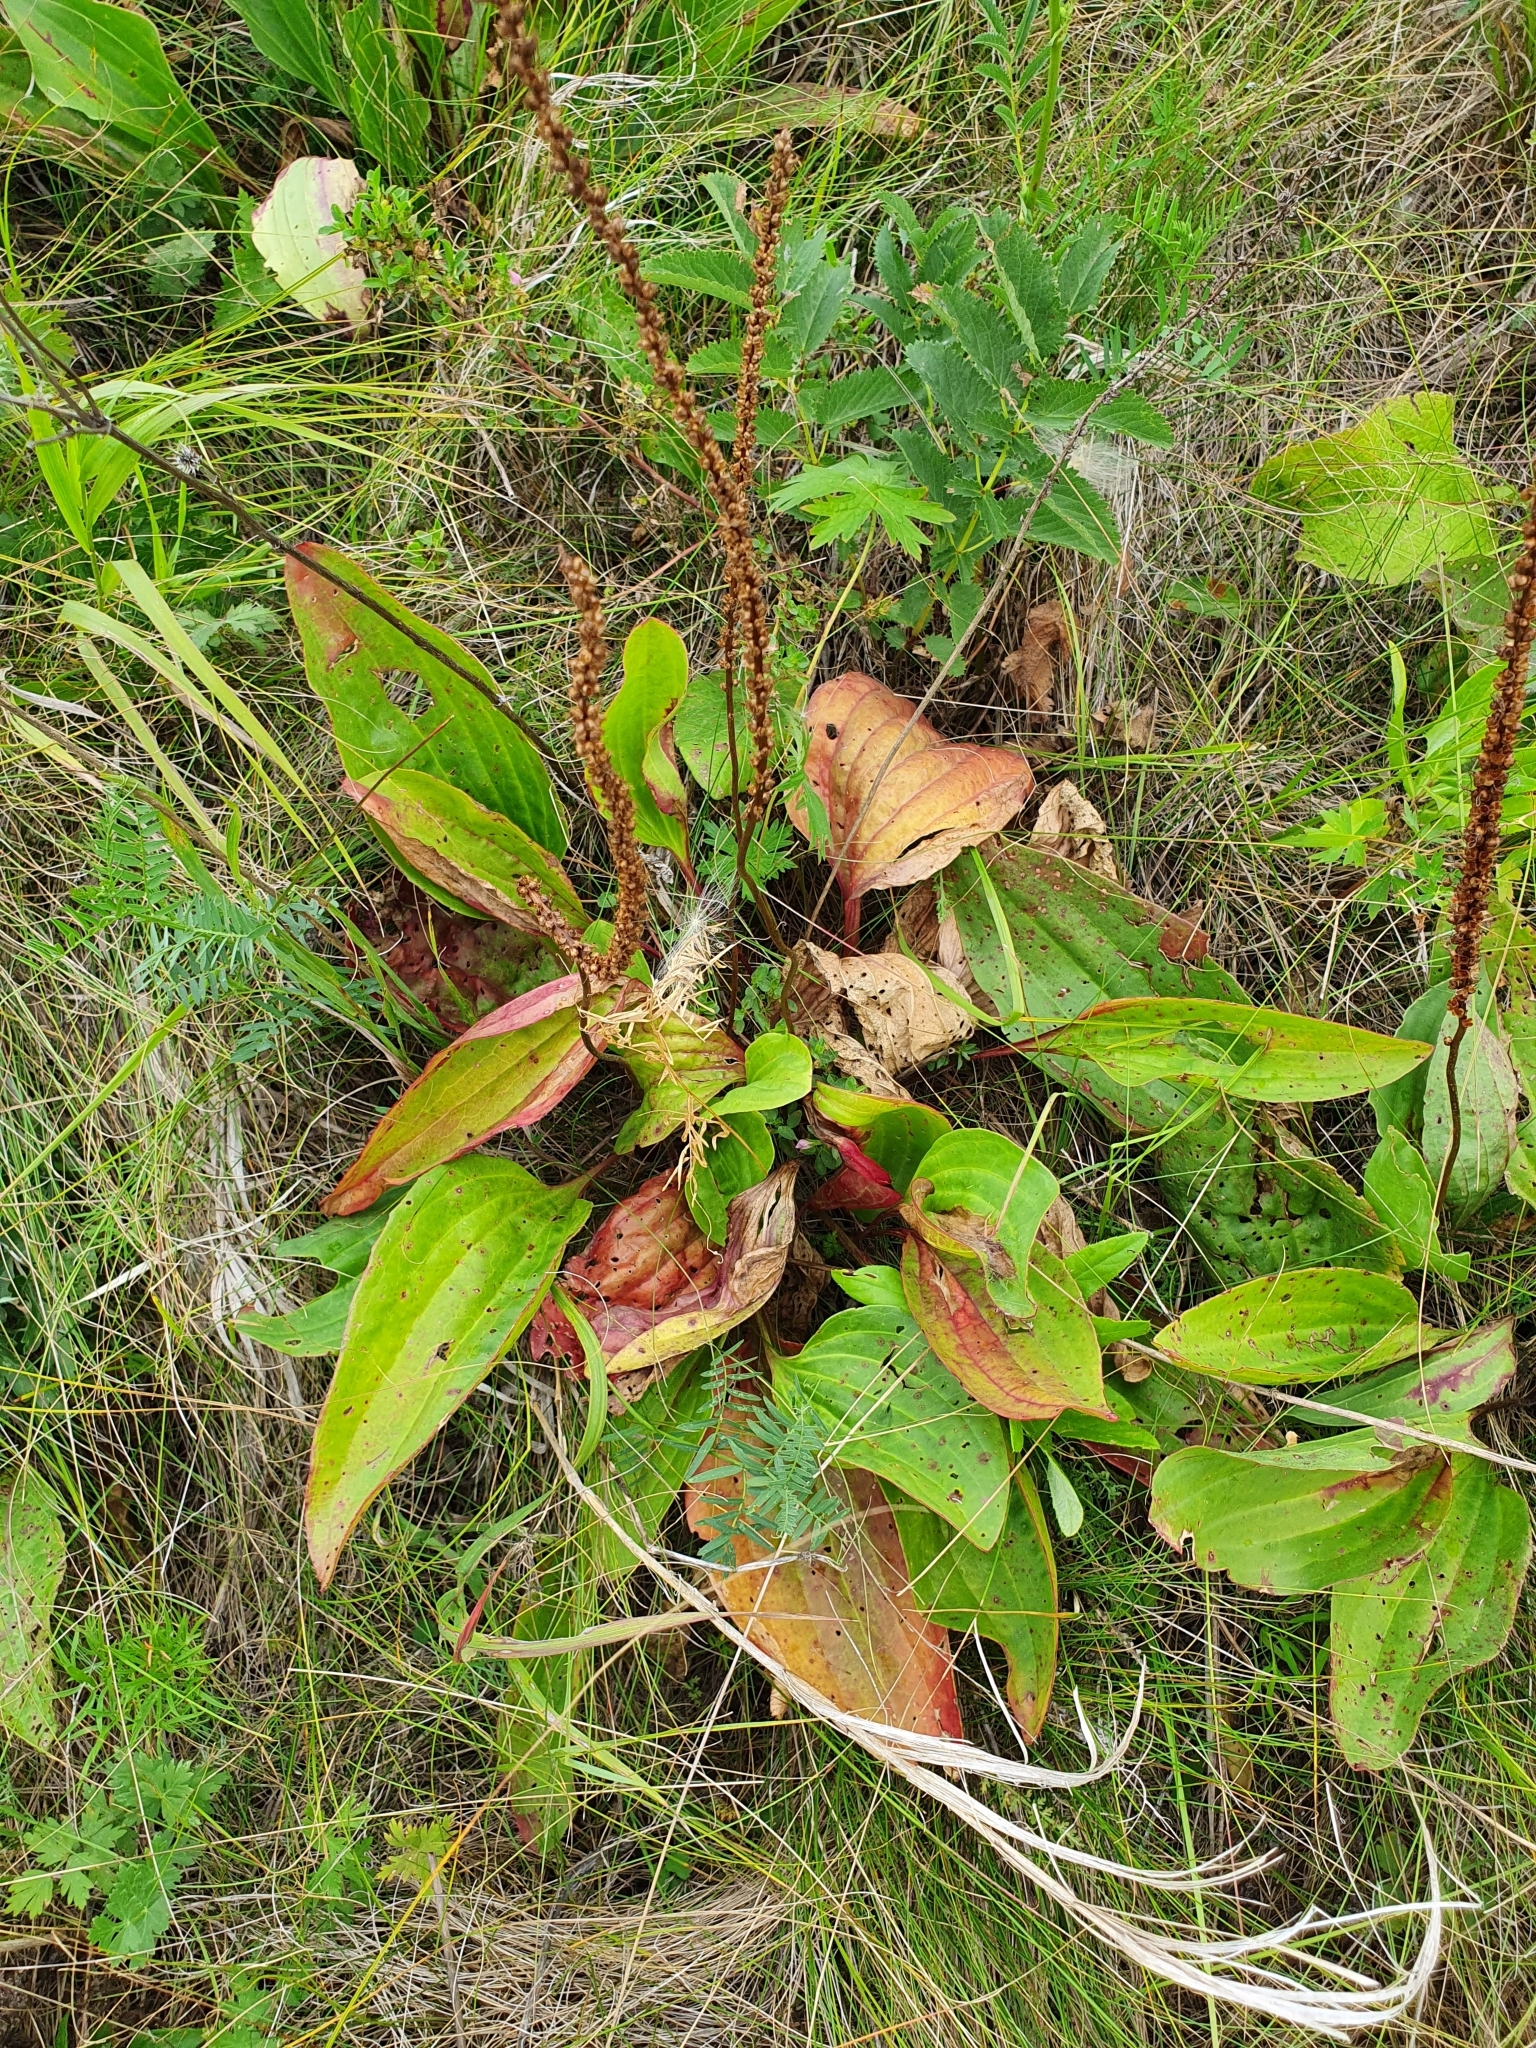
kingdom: Plantae
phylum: Tracheophyta
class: Magnoliopsida
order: Lamiales
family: Plantaginaceae
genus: Plantago
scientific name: Plantago cornuti
